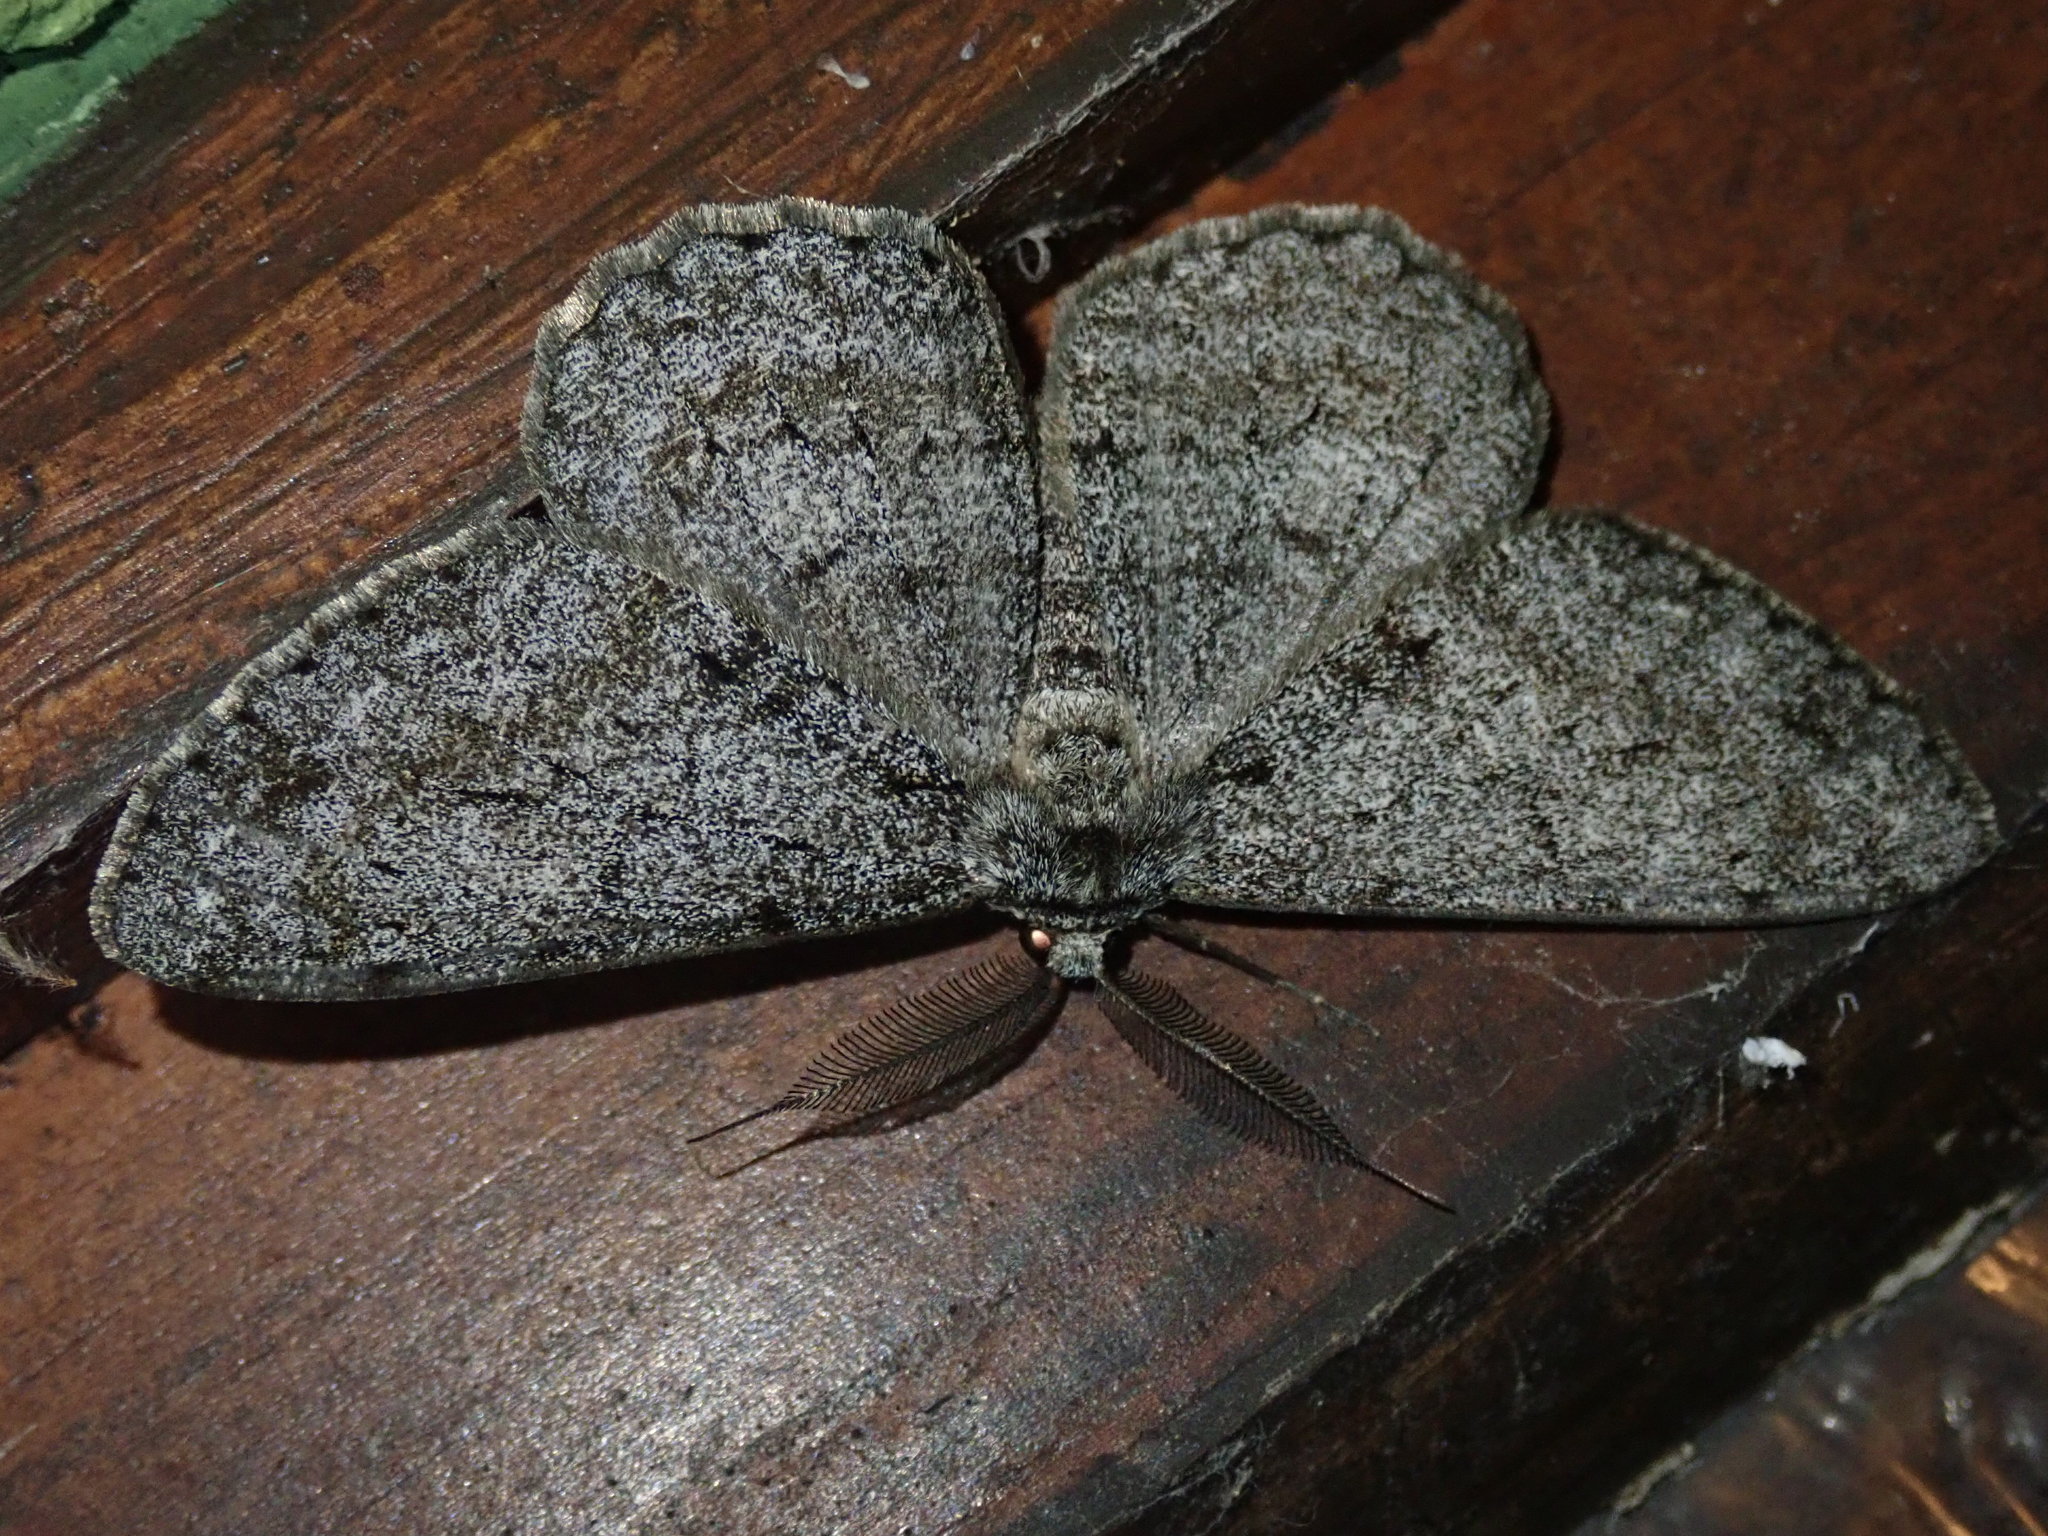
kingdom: Animalia
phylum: Arthropoda
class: Insecta
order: Lepidoptera
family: Geometridae
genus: Hypomecis
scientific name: Hypomecis roboraria
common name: Great oak beauty
